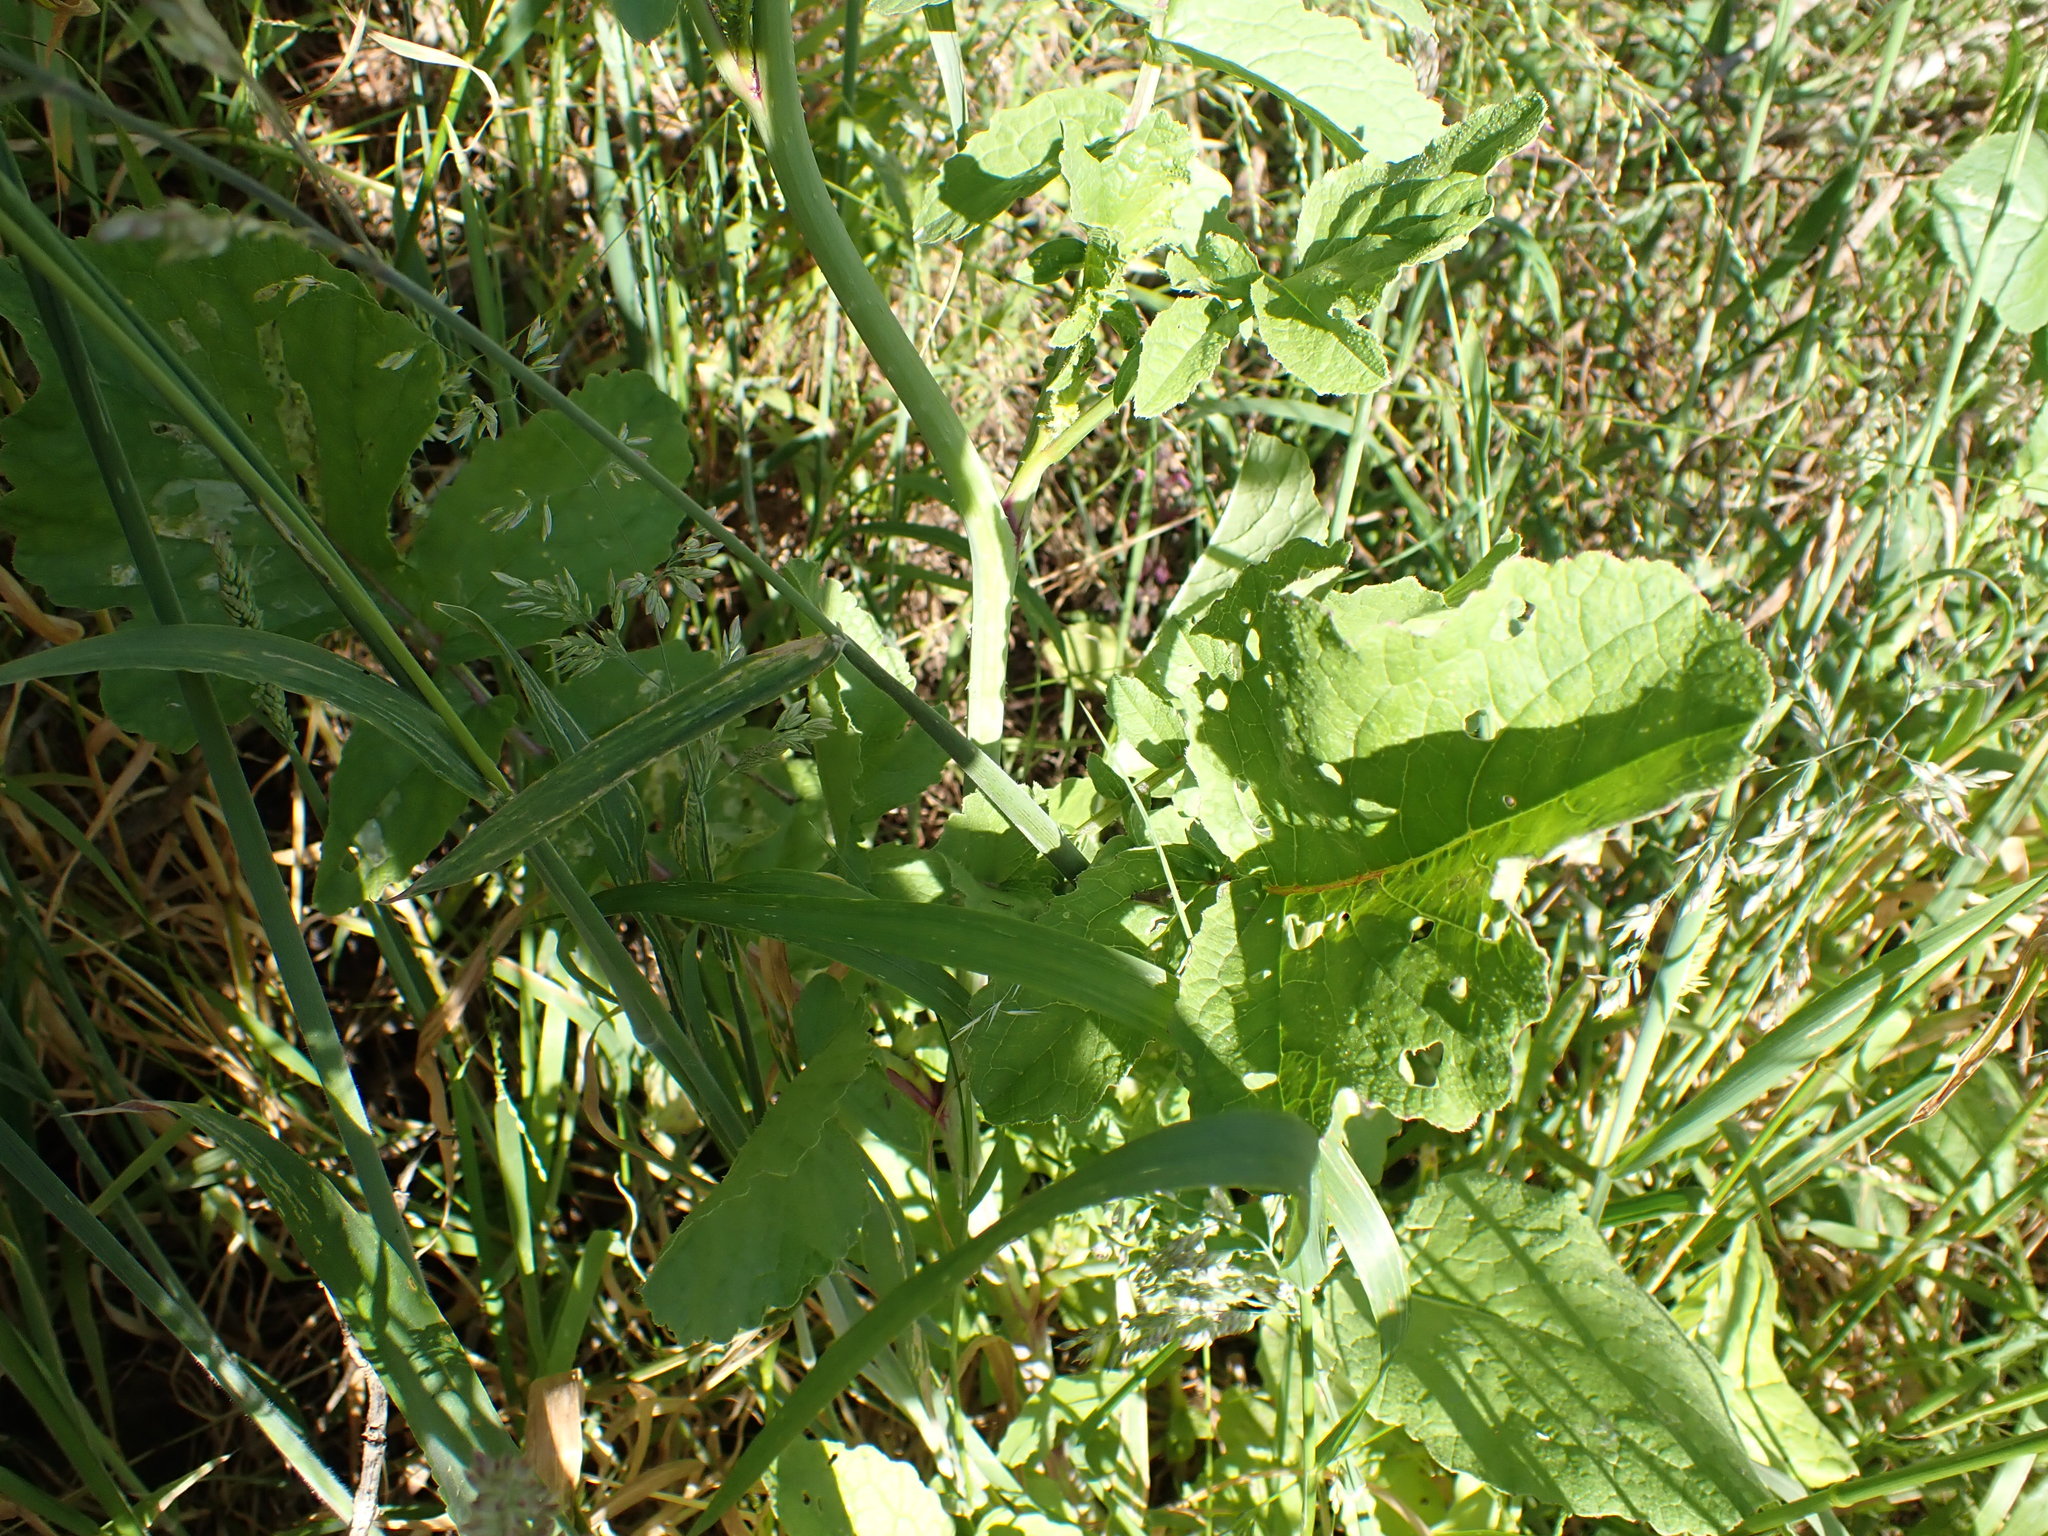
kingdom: Plantae
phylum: Tracheophyta
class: Magnoliopsida
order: Brassicales
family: Brassicaceae
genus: Raphanus
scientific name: Raphanus raphanistrum
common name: Wild radish
